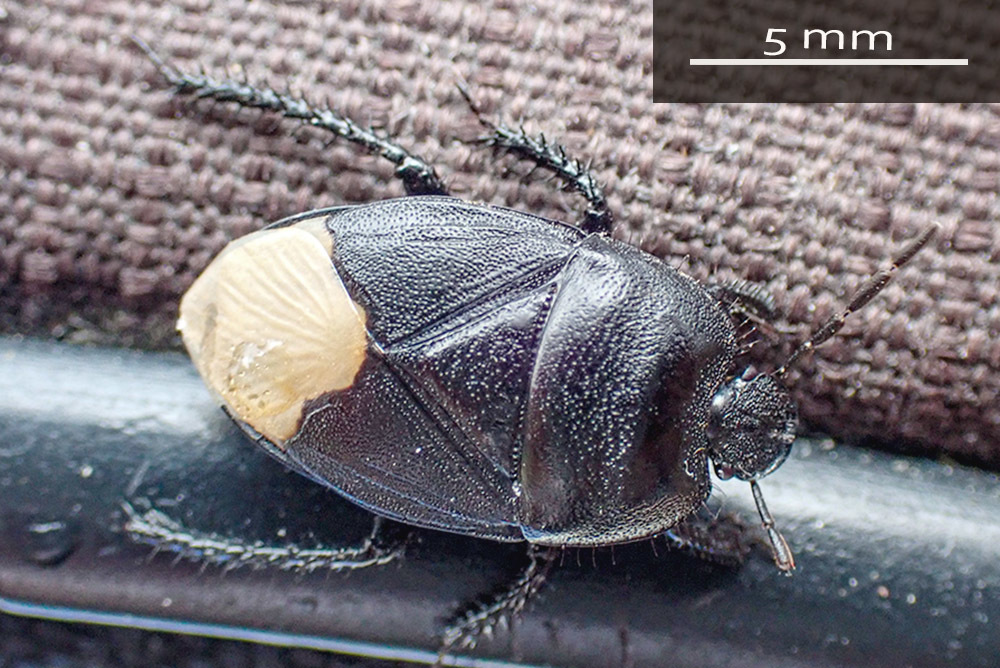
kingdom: Animalia
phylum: Arthropoda
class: Insecta
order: Hemiptera
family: Cydnidae
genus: Cydnus
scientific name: Cydnus aterrimus
